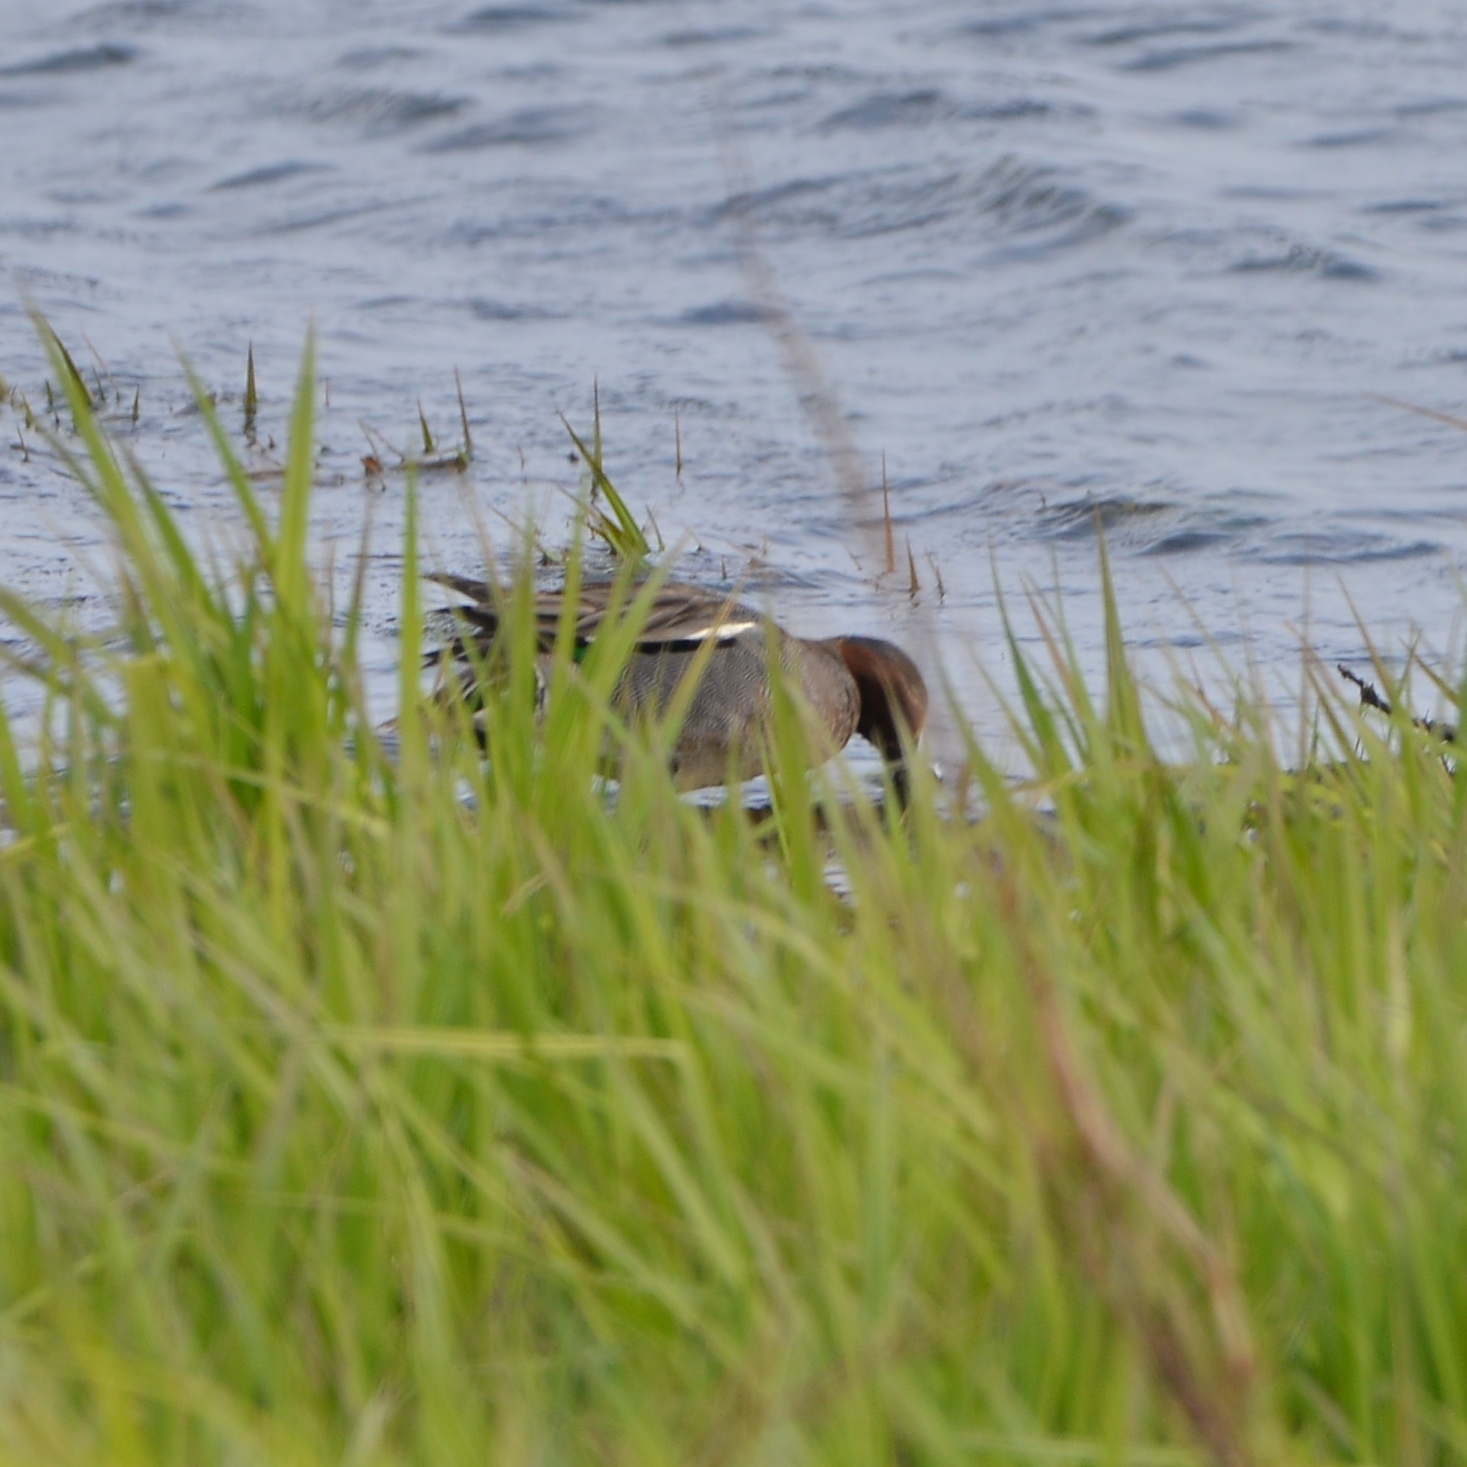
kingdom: Animalia
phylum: Chordata
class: Aves
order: Anseriformes
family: Anatidae
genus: Anas
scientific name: Anas crecca
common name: Eurasian teal
